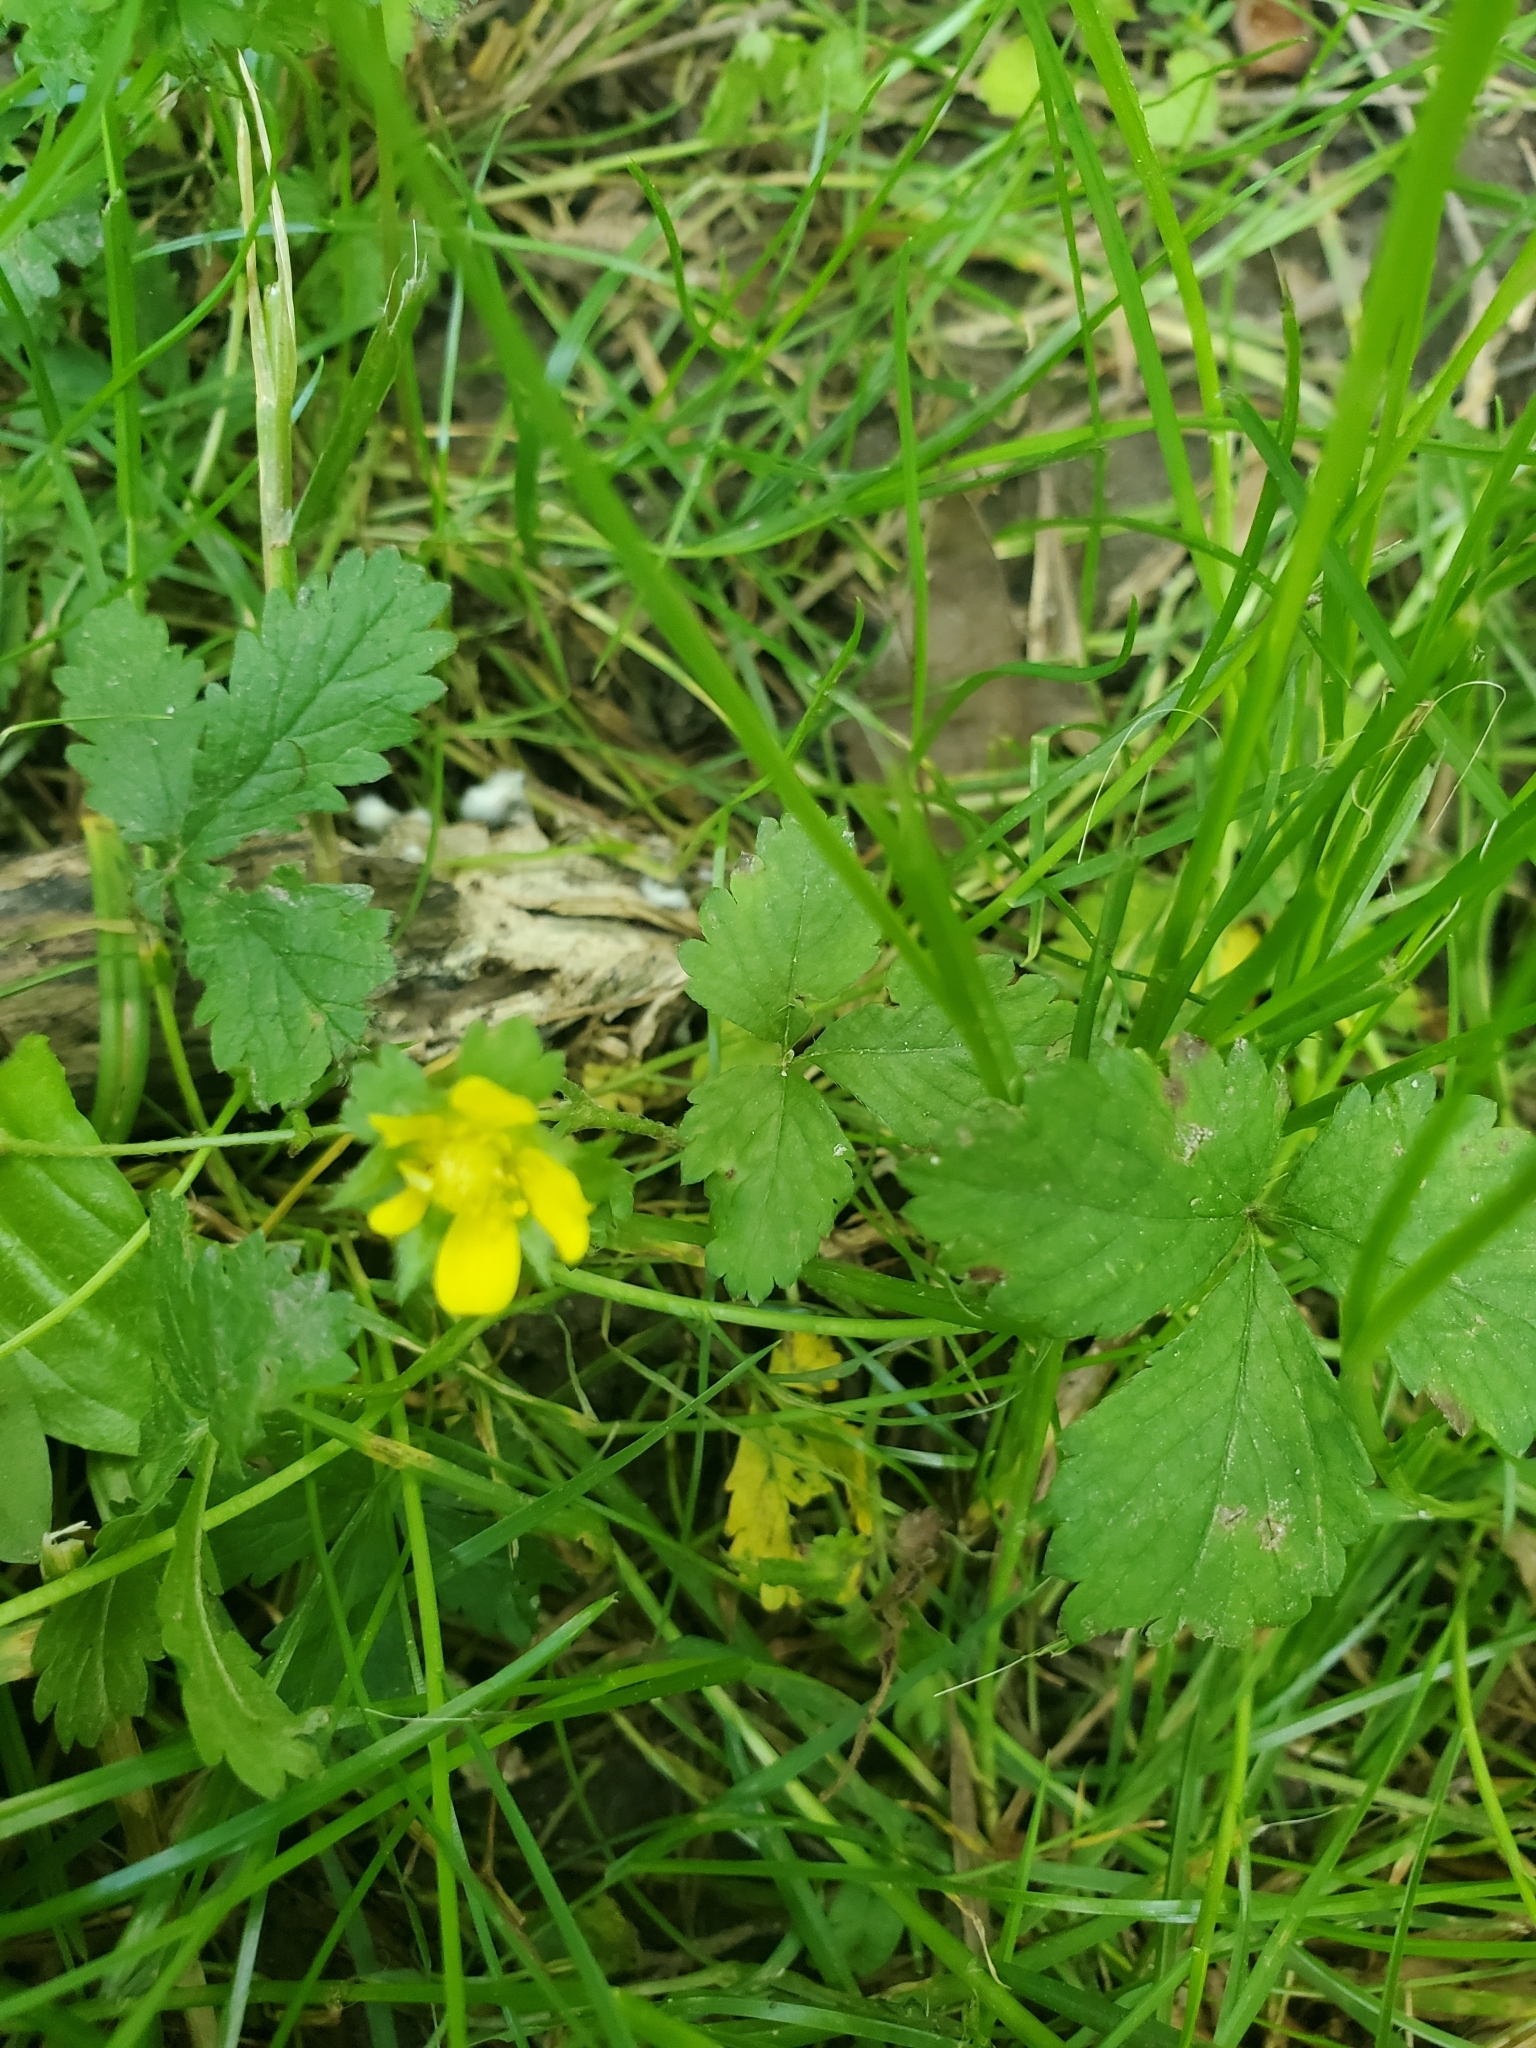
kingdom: Plantae
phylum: Tracheophyta
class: Magnoliopsida
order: Rosales
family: Rosaceae
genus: Potentilla
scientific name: Potentilla indica
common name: Yellow-flowered strawberry
